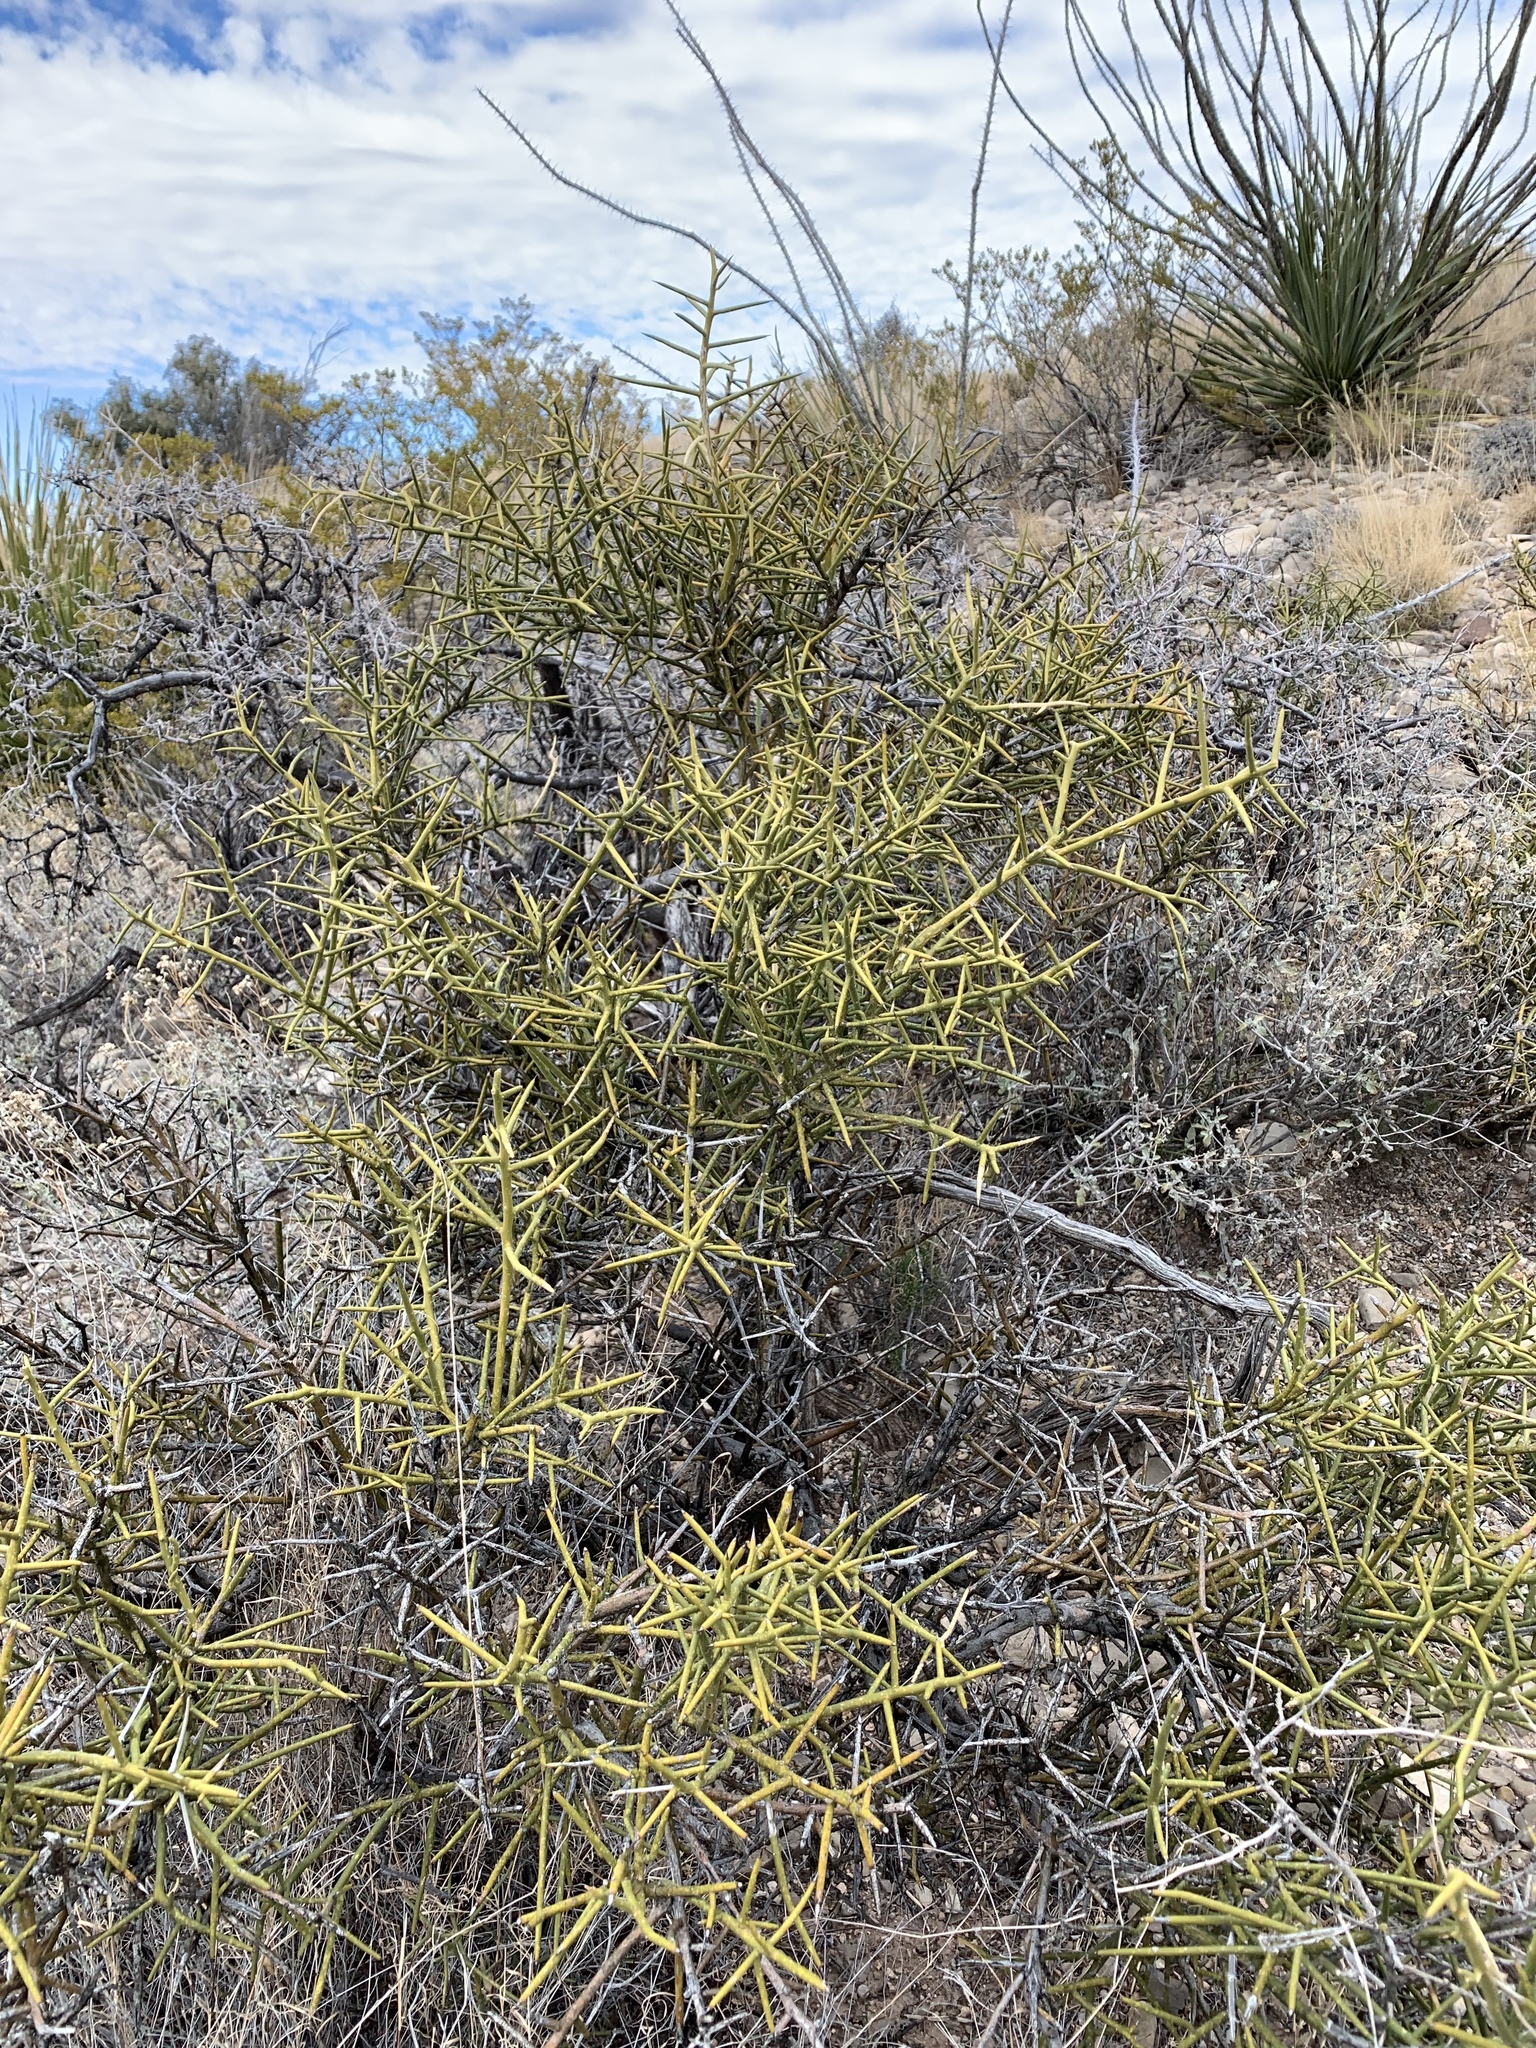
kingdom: Plantae
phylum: Tracheophyta
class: Magnoliopsida
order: Brassicales
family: Koeberliniaceae
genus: Koeberlinia
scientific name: Koeberlinia spinosa
